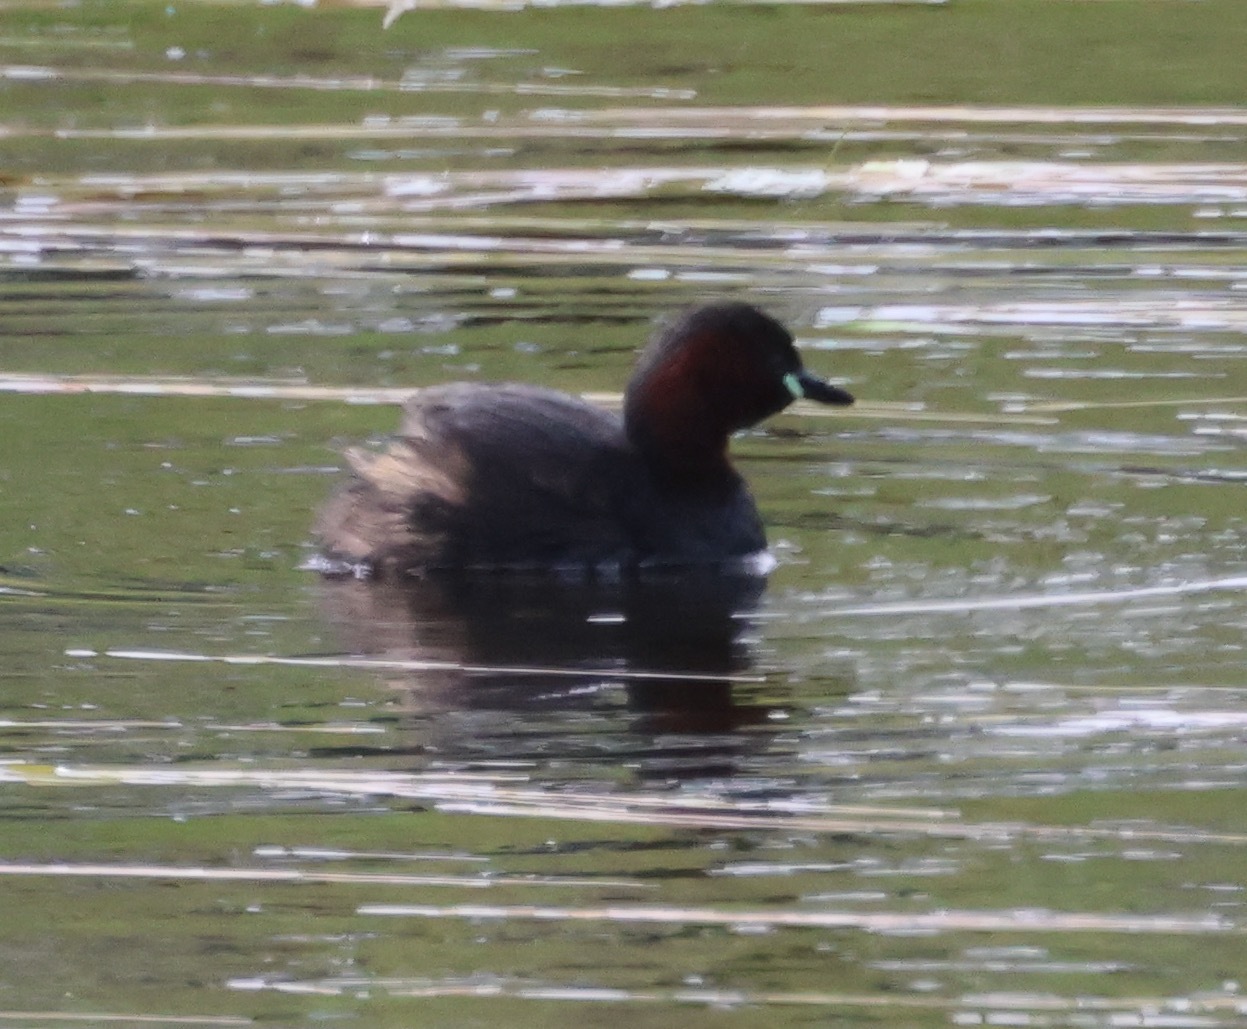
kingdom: Animalia
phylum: Chordata
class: Aves
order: Podicipediformes
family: Podicipedidae
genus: Tachybaptus
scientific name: Tachybaptus ruficollis
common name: Little grebe
